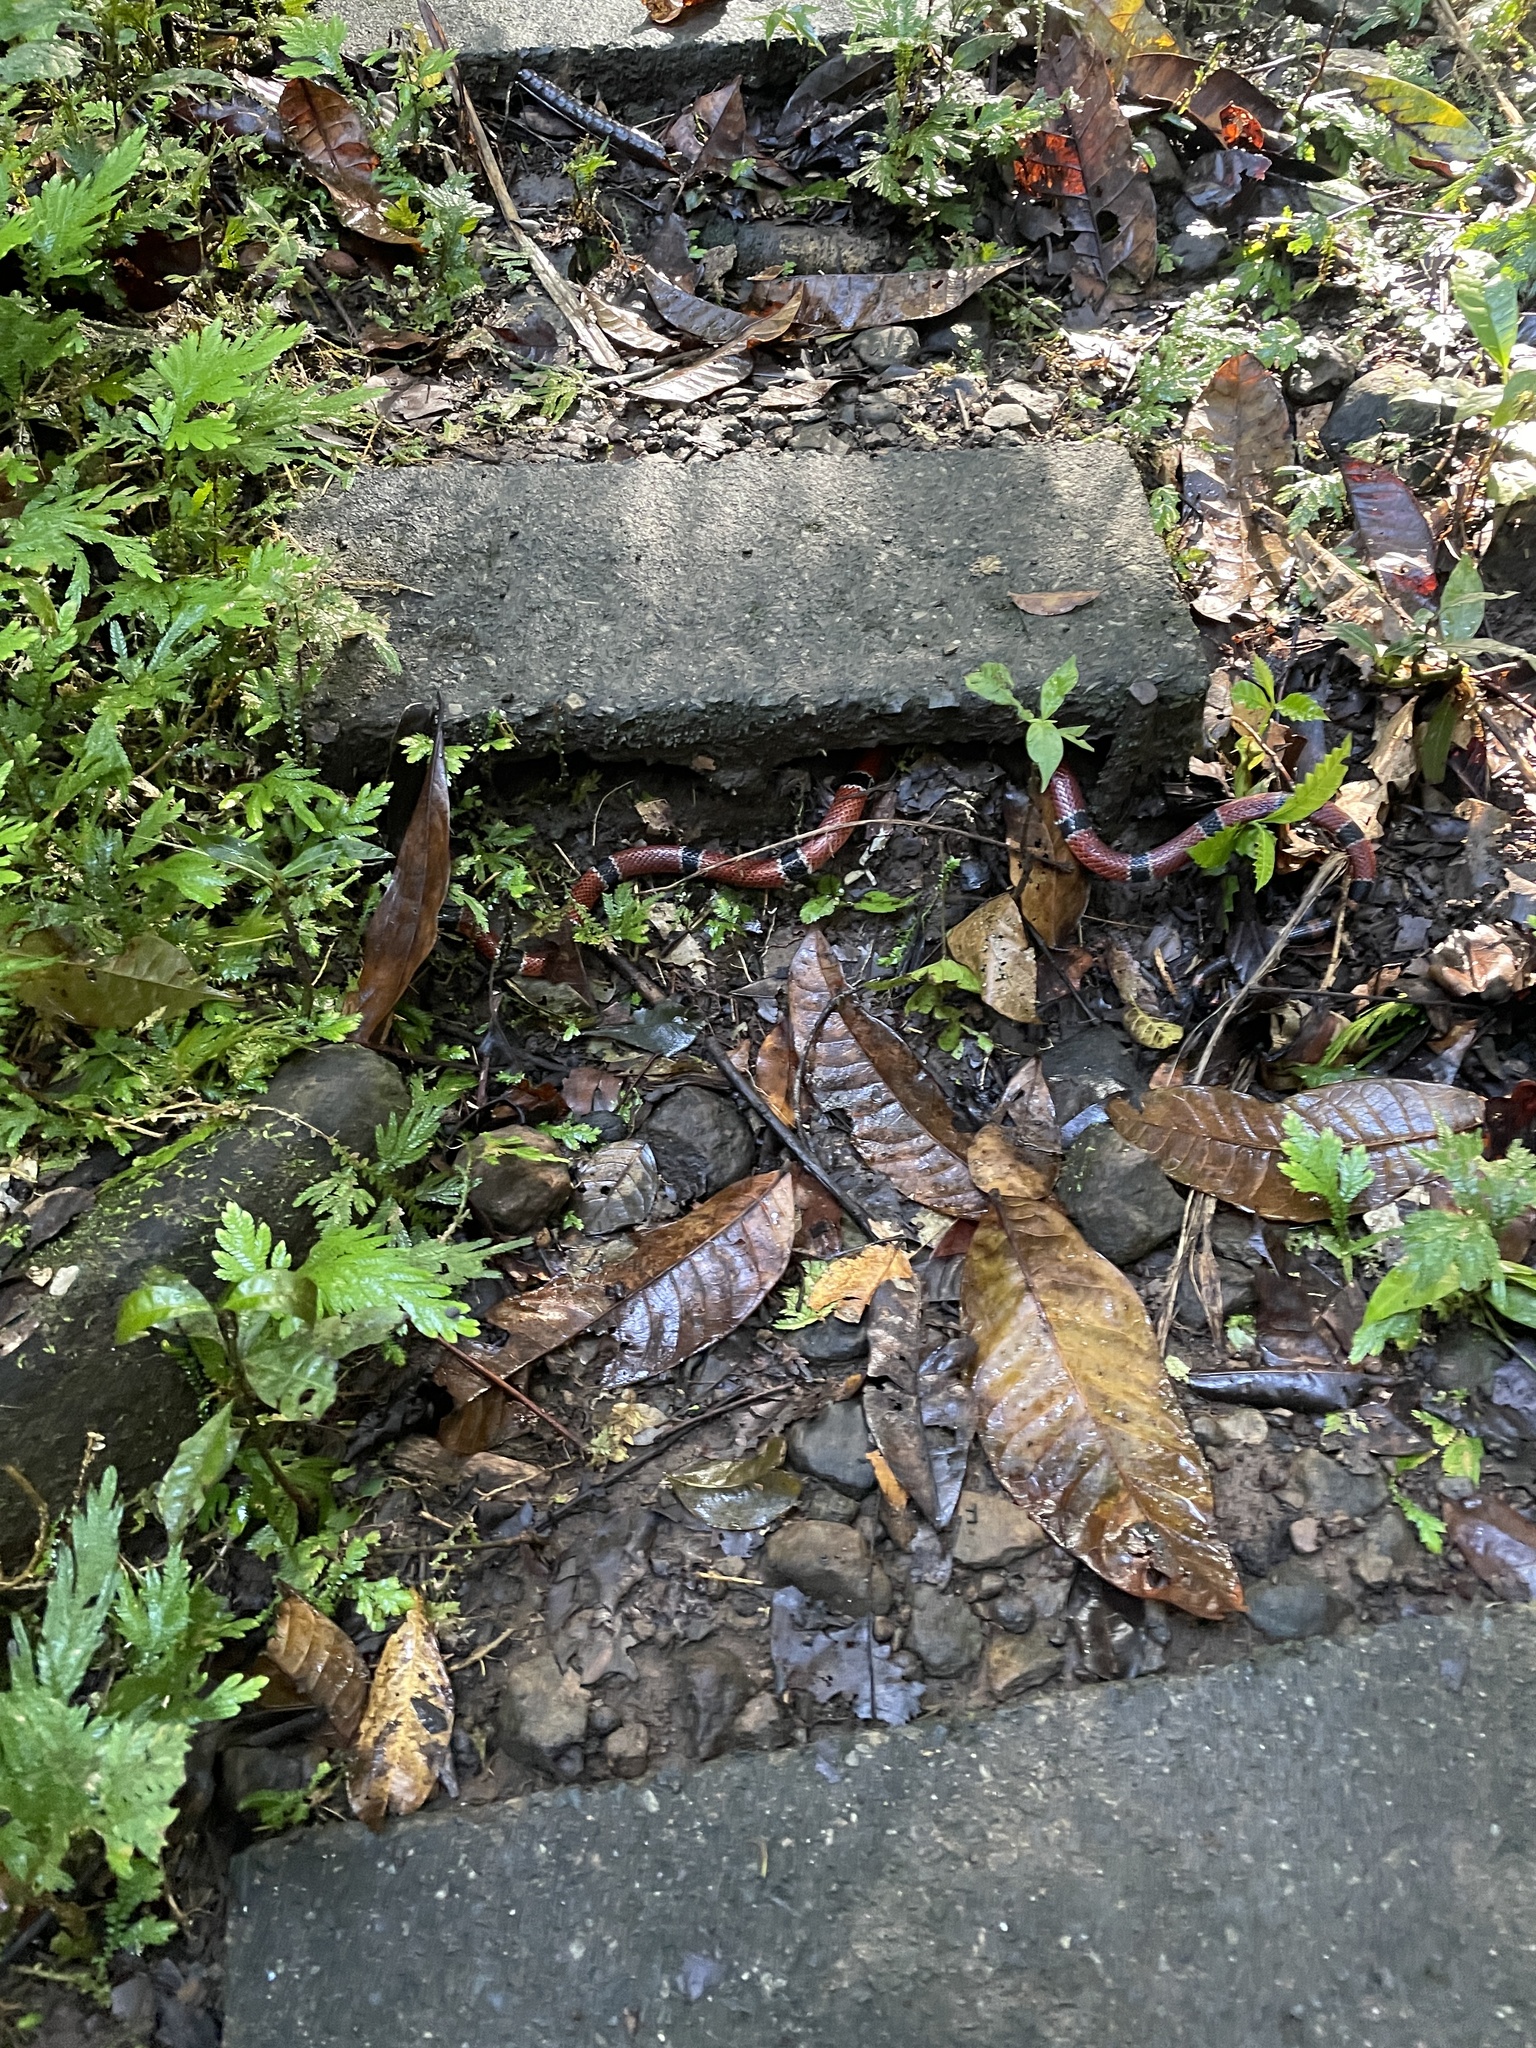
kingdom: Animalia
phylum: Chordata
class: Squamata
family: Elapidae
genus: Micrurus
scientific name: Micrurus nigrocinctus
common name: Babaspul [babaspul]
